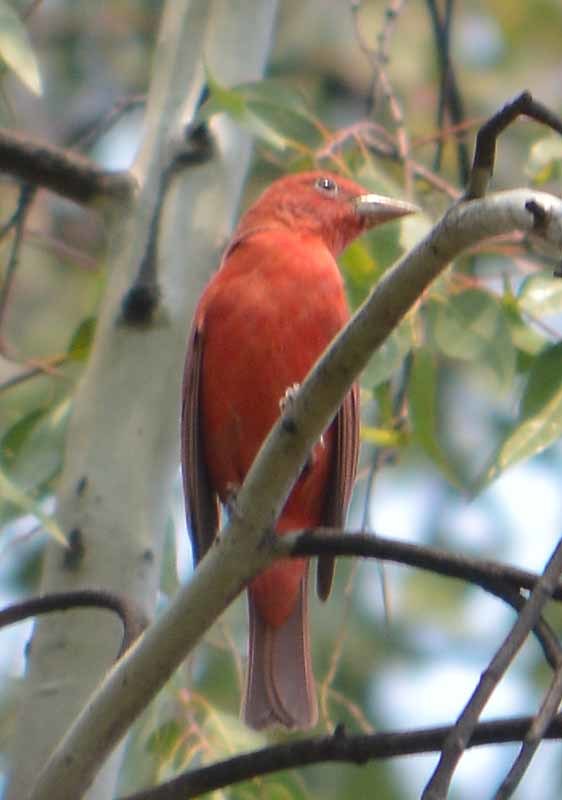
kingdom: Animalia
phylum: Chordata
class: Aves
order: Passeriformes
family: Cardinalidae
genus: Piranga
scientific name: Piranga rubra
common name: Summer tanager
